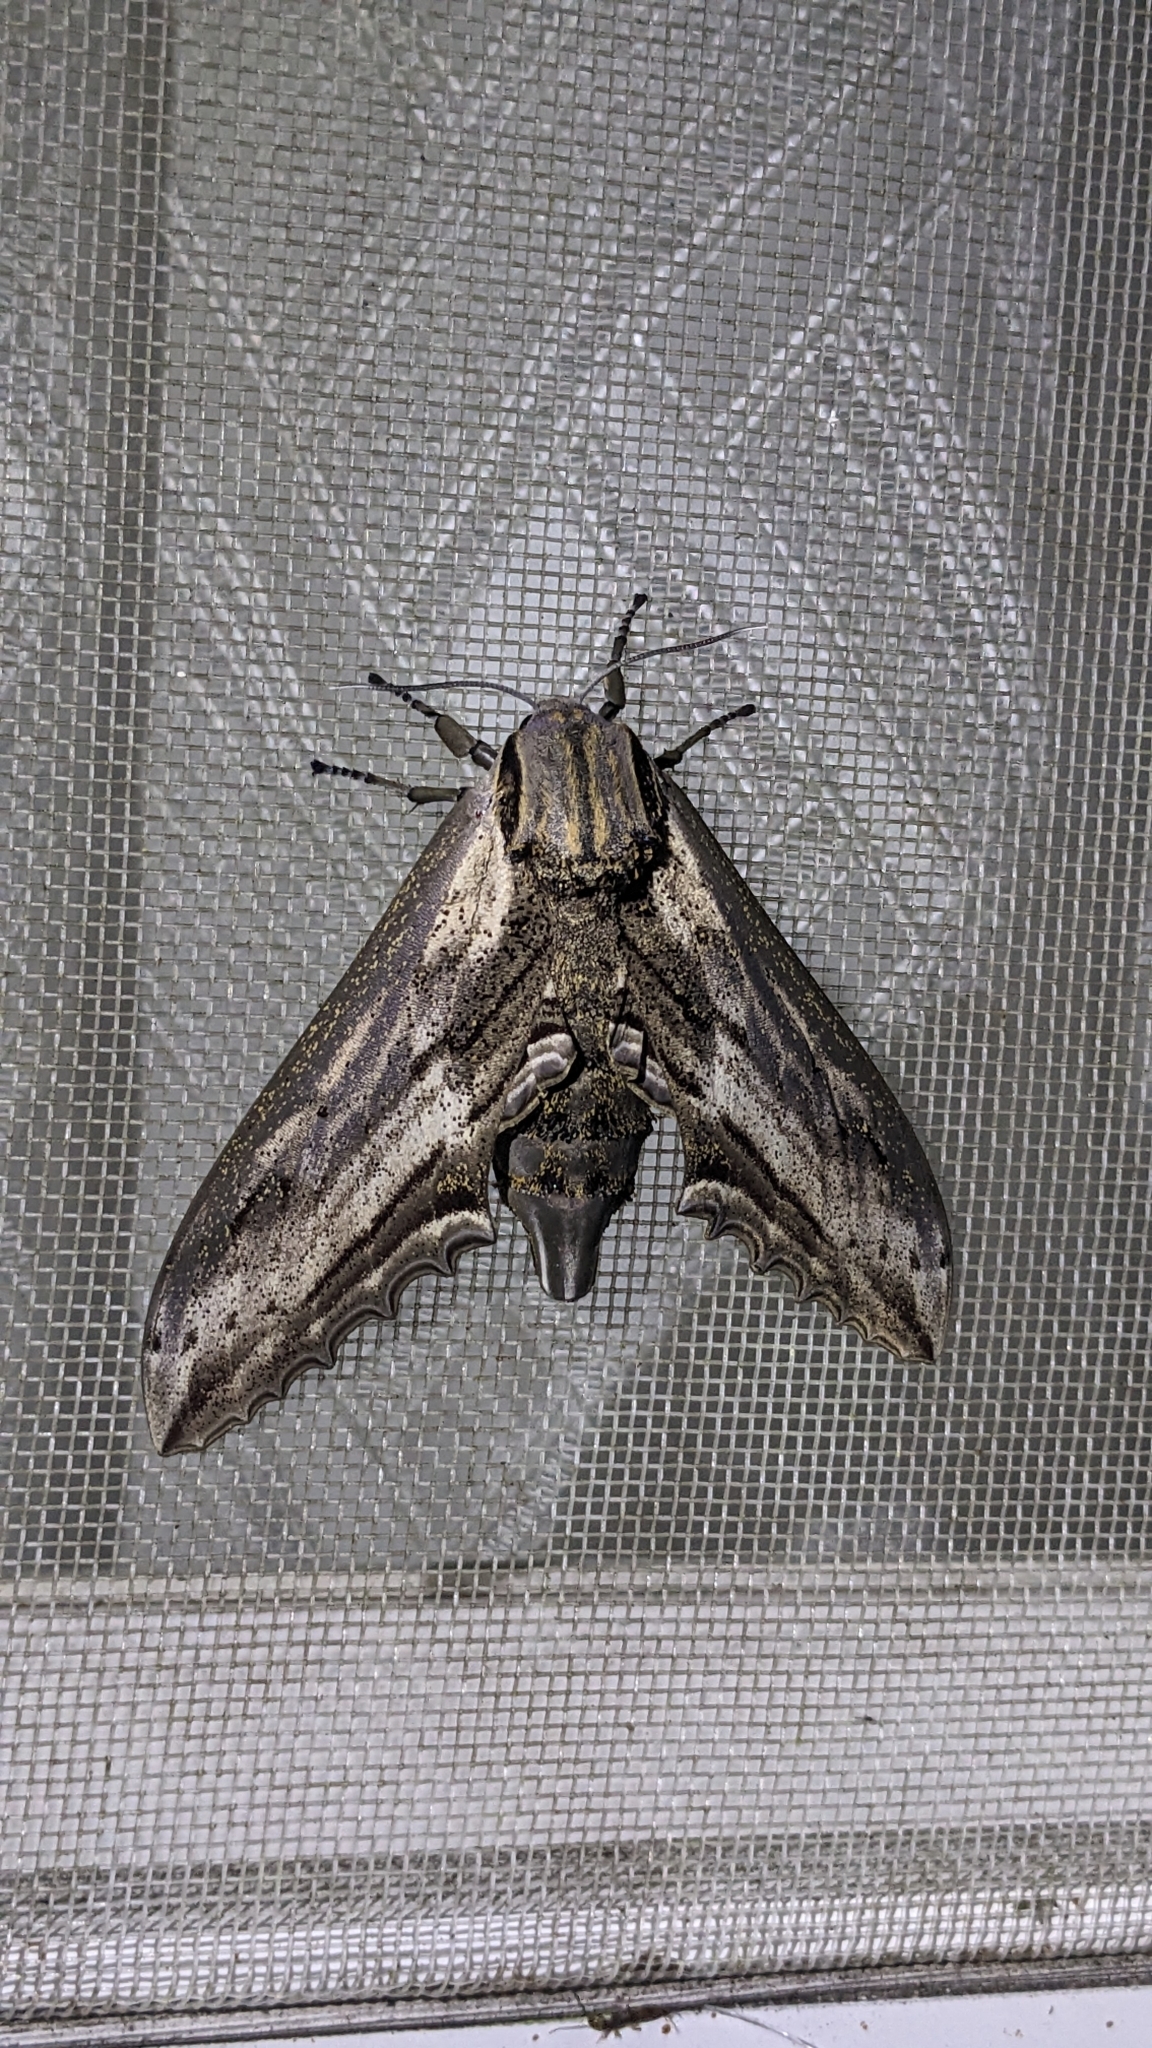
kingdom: Animalia
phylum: Arthropoda
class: Insecta
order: Lepidoptera
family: Sphingidae
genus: Langia
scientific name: Langia zenzeroides
